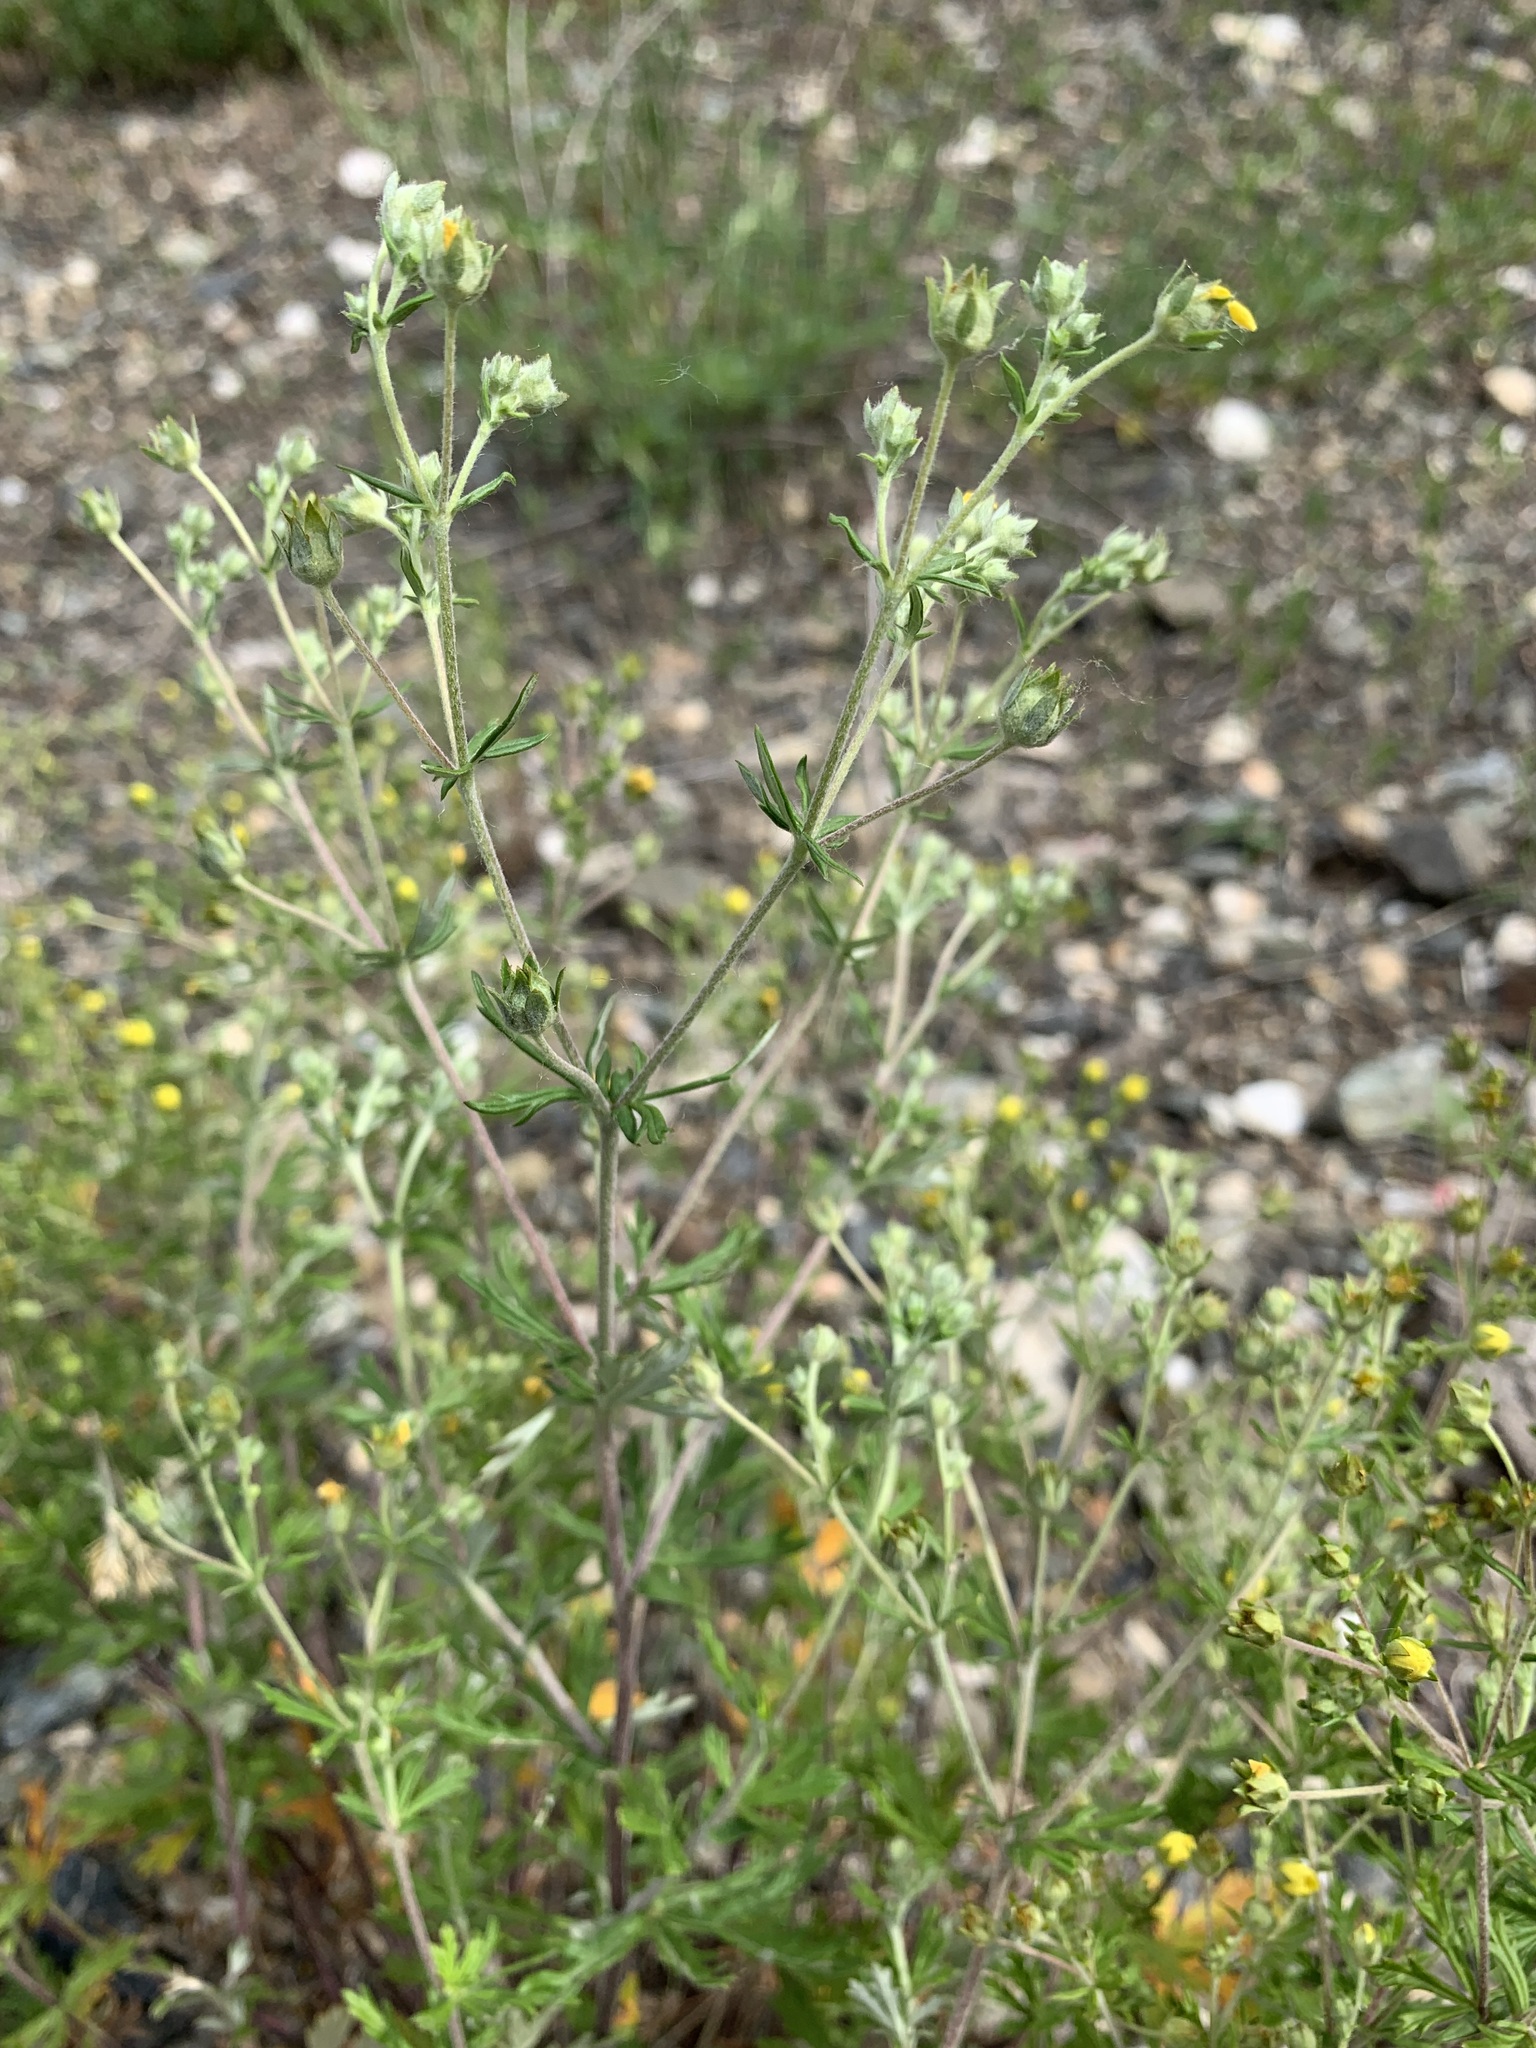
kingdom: Plantae
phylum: Tracheophyta
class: Magnoliopsida
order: Rosales
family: Rosaceae
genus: Potentilla
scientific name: Potentilla argentea
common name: Hoary cinquefoil
